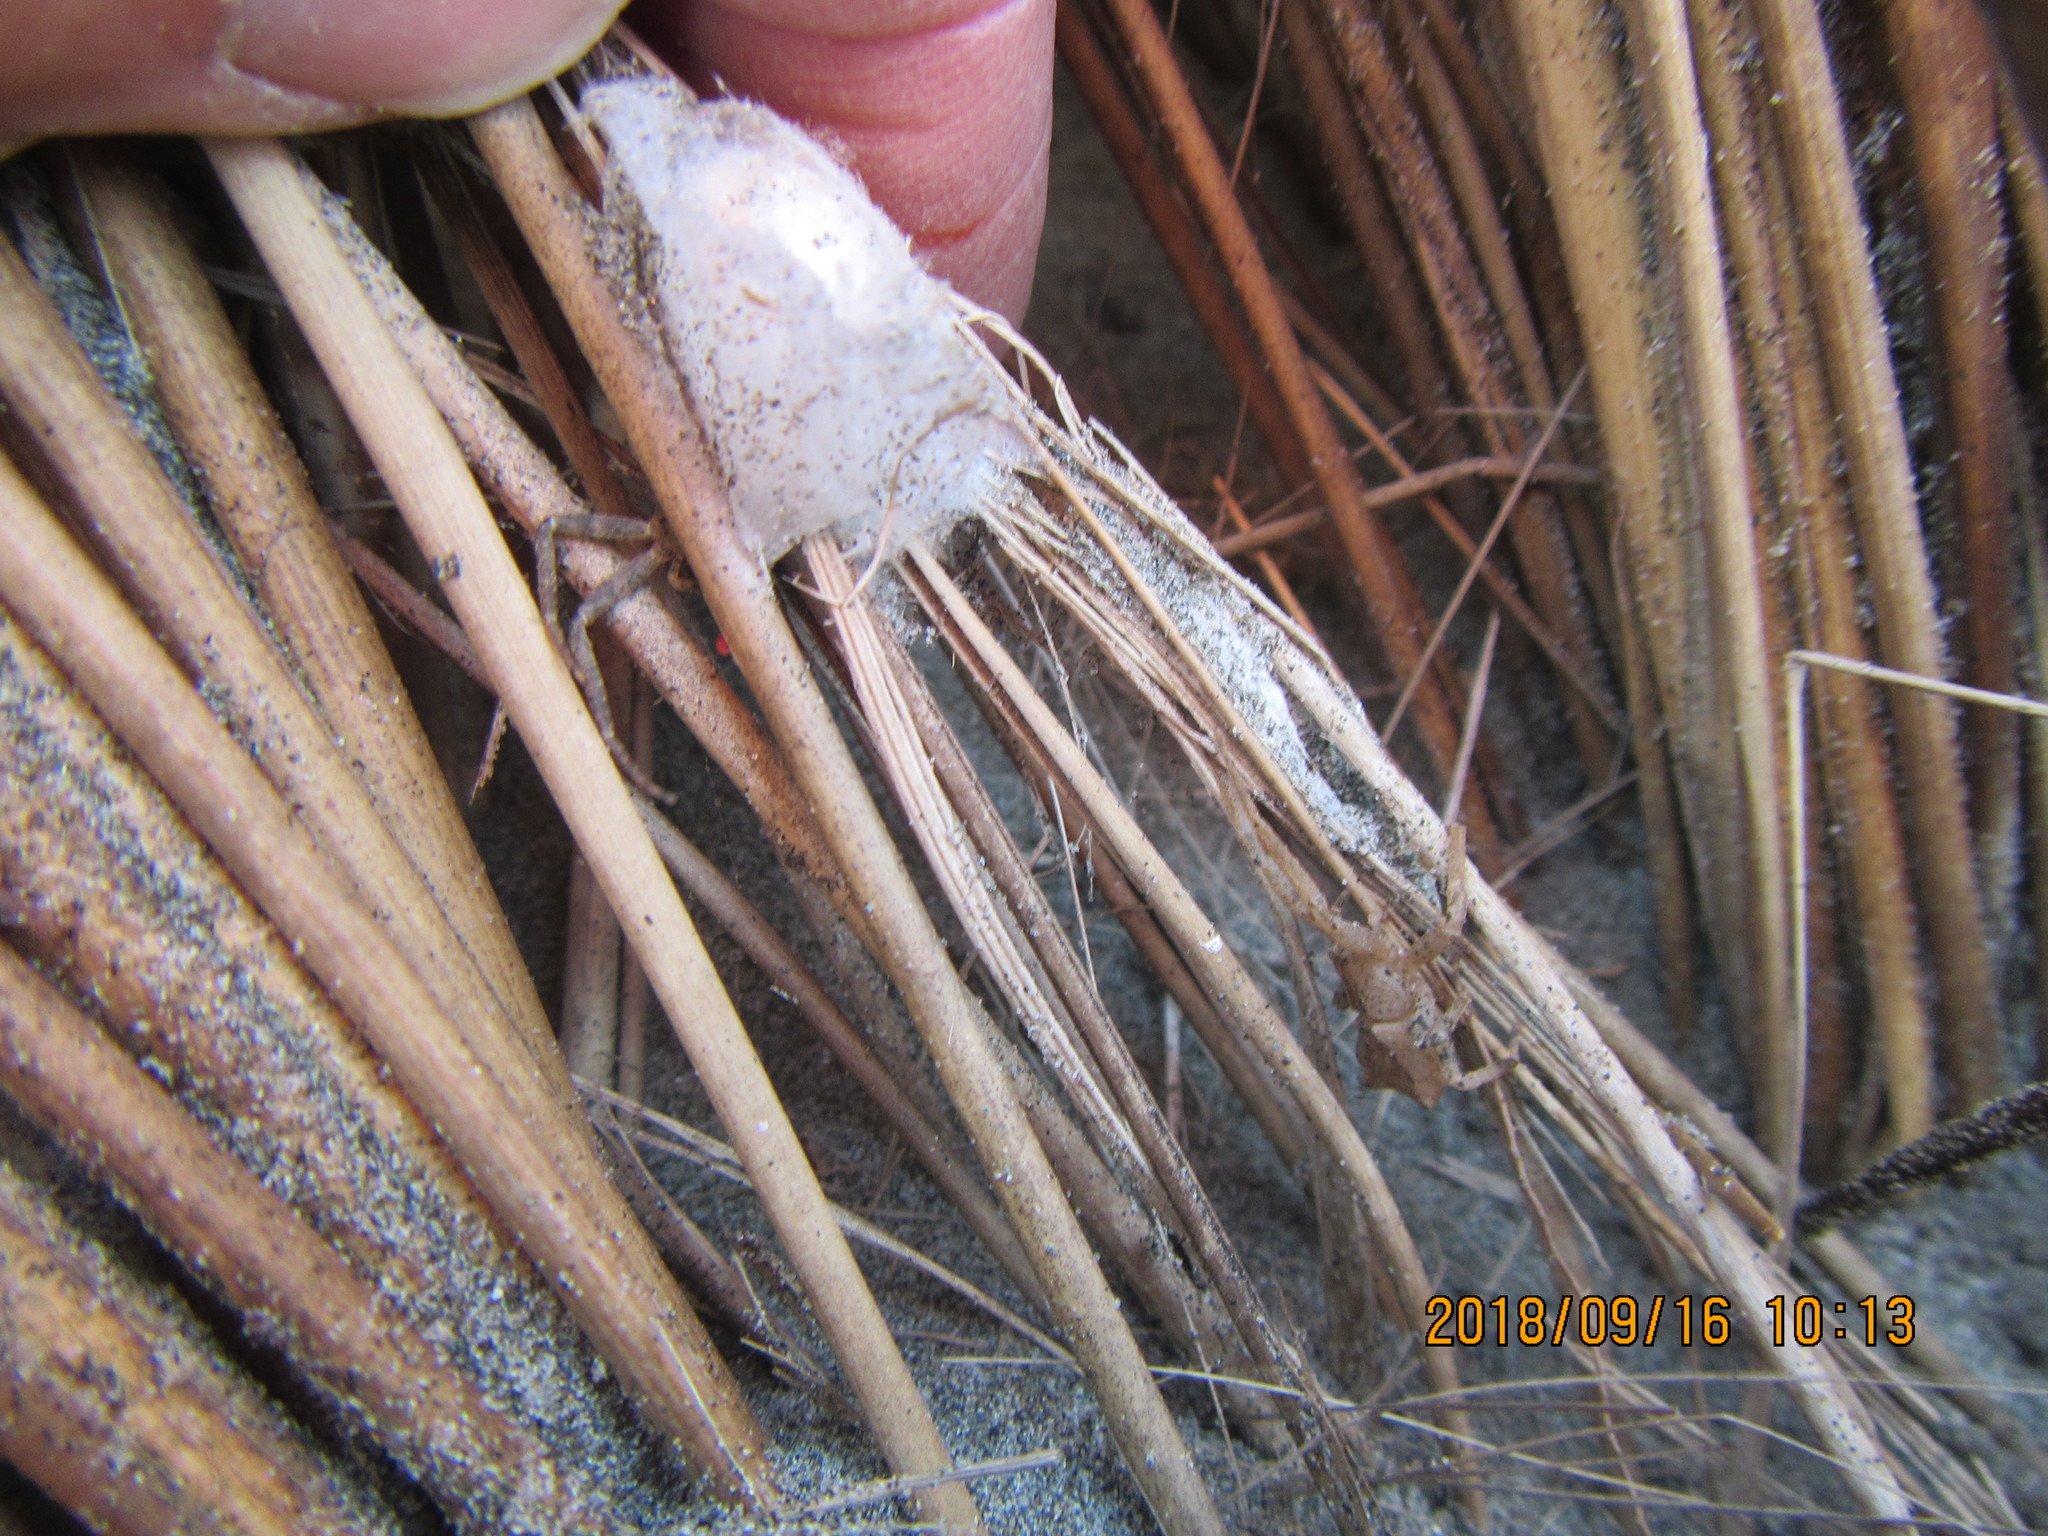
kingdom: Animalia
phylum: Arthropoda
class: Arachnida
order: Araneae
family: Thomisidae
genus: Sidymella
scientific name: Sidymella trapezia
